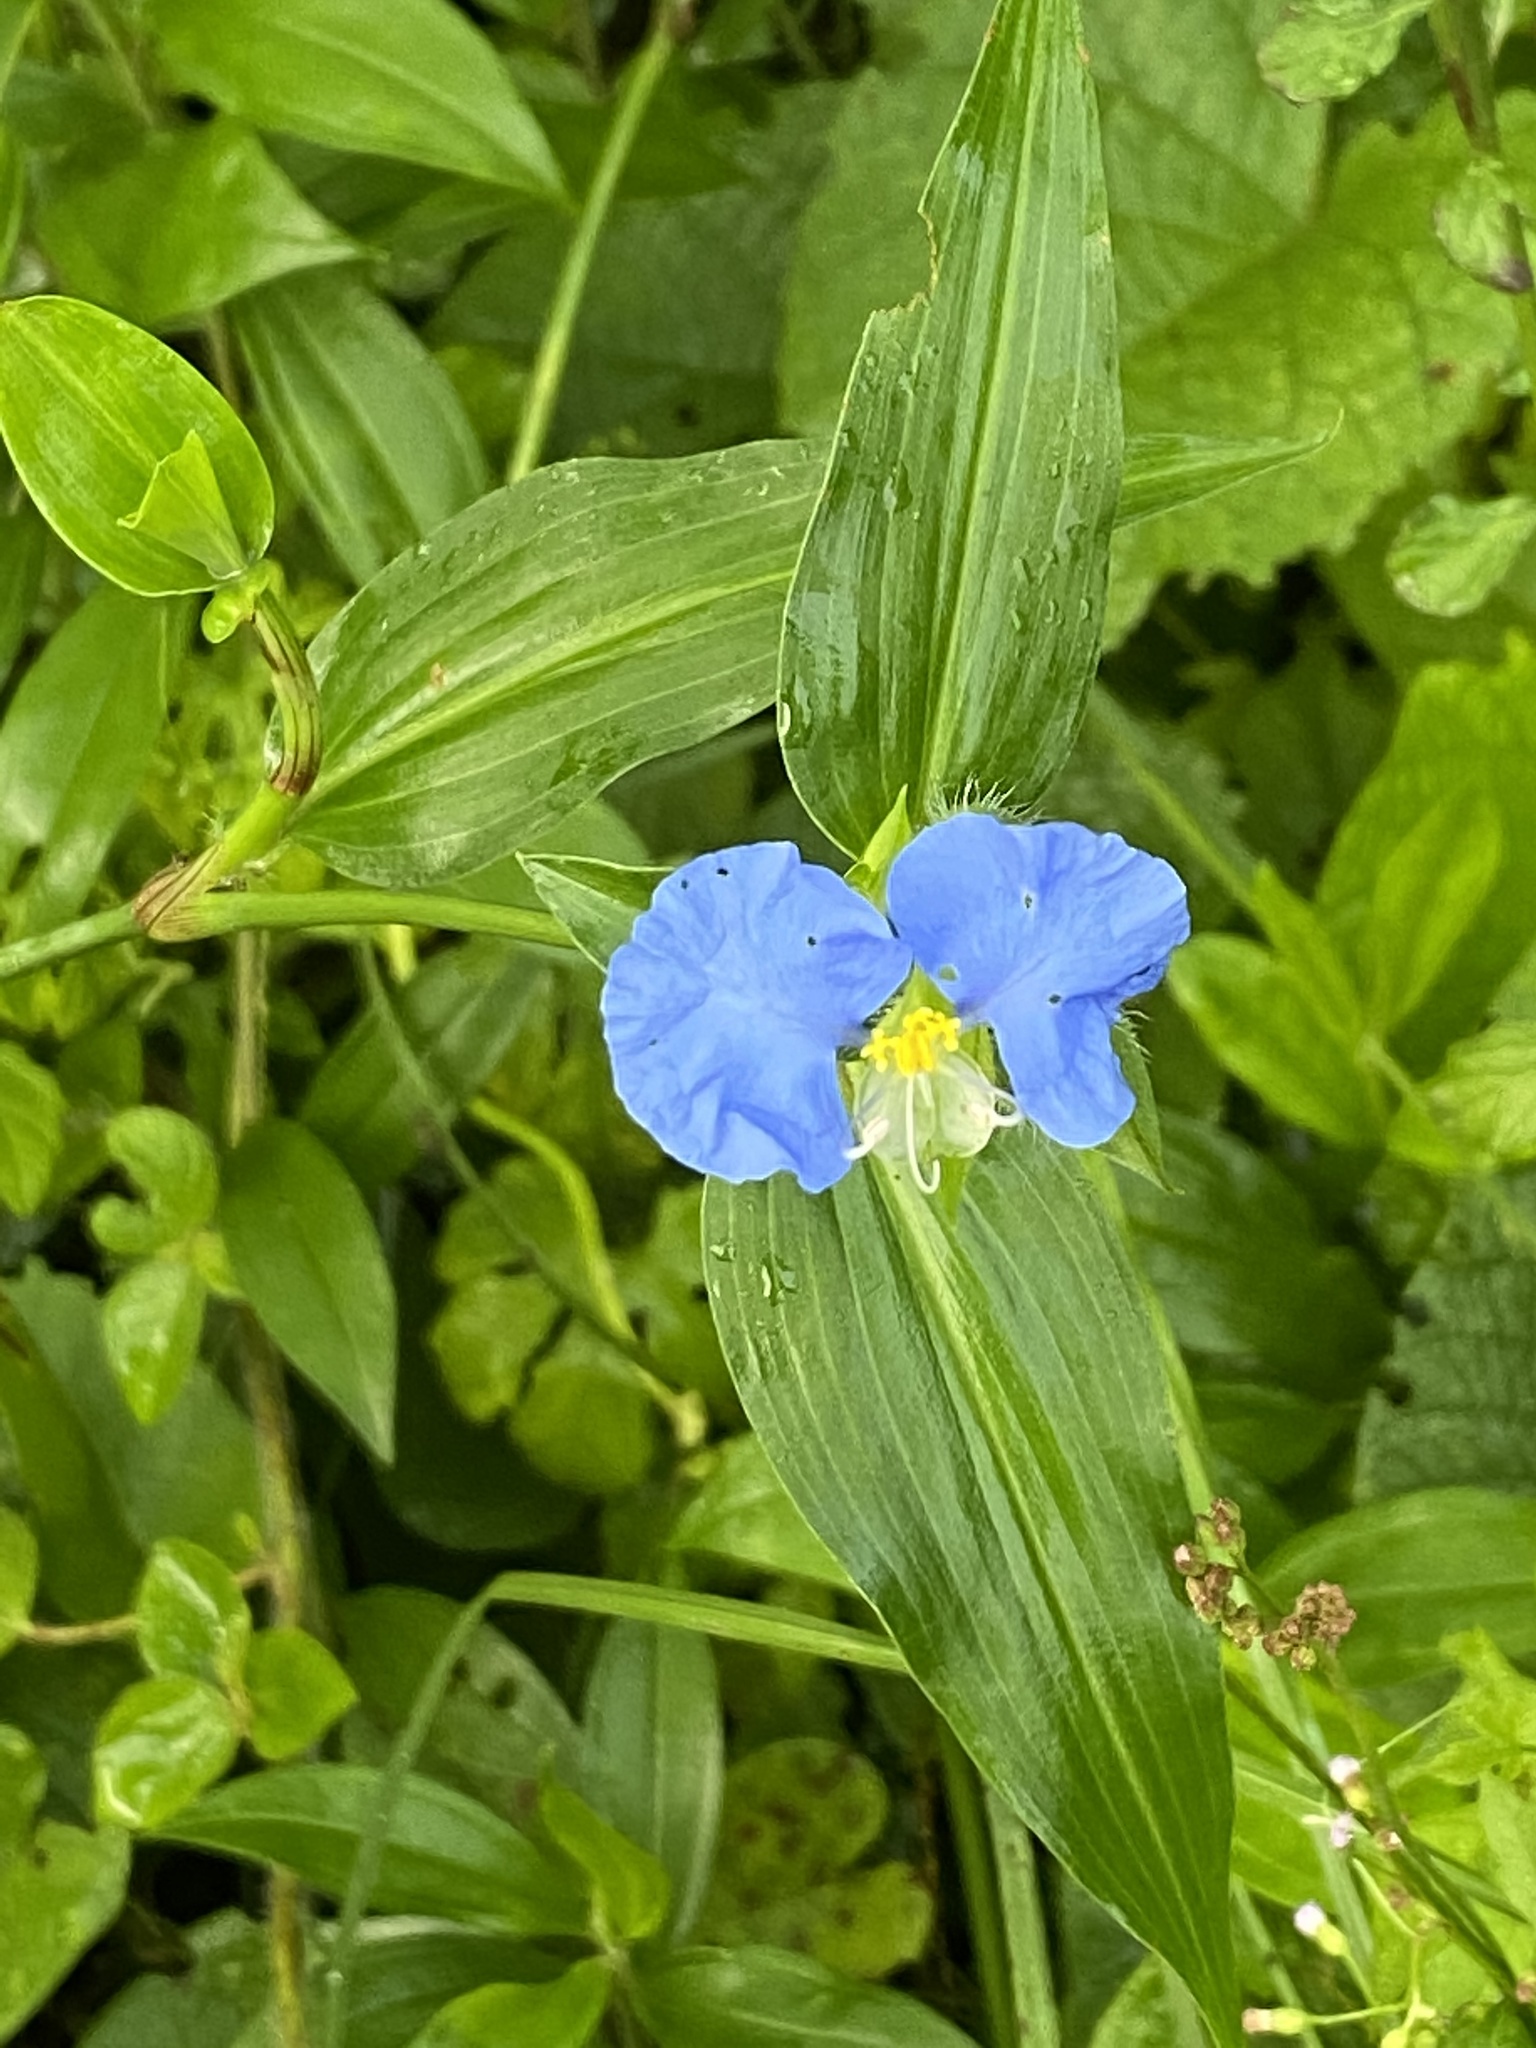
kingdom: Plantae
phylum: Tracheophyta
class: Liliopsida
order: Commelinales
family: Commelinaceae
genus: Commelina
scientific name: Commelina erecta
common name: Blousel blommetjie
